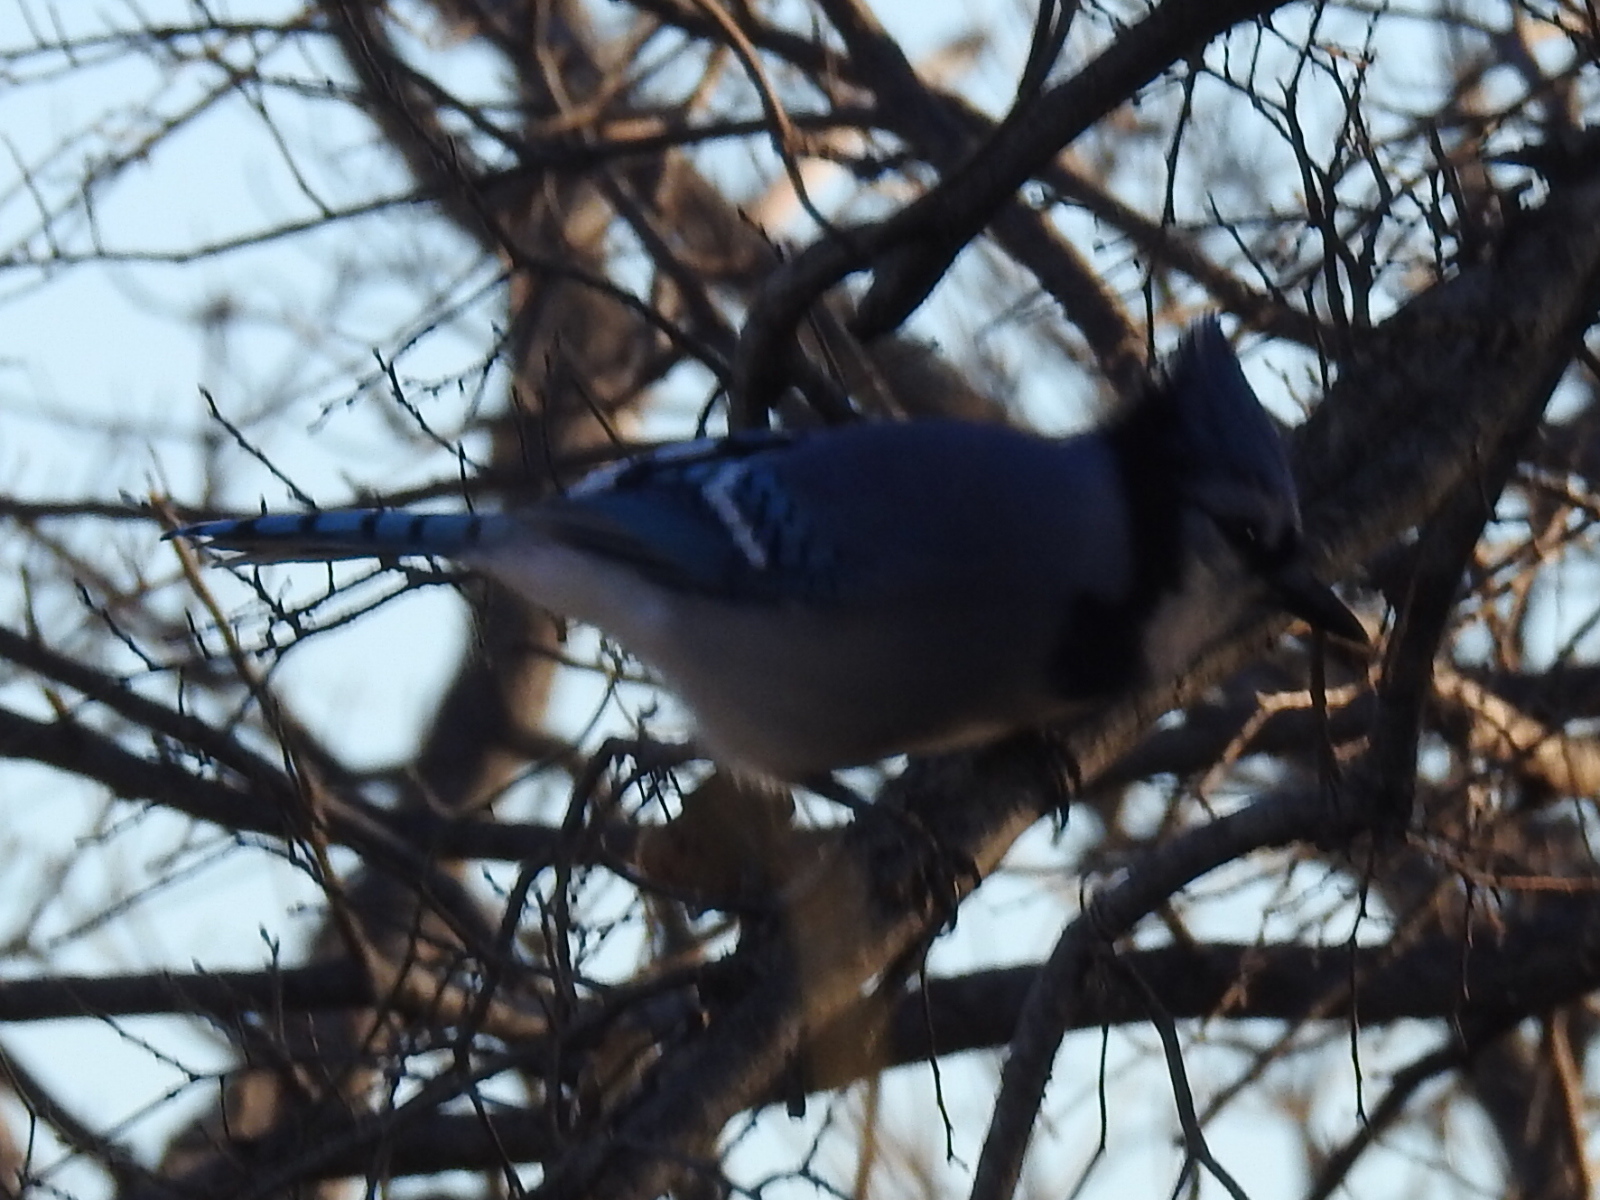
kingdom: Animalia
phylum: Chordata
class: Aves
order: Passeriformes
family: Corvidae
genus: Cyanocitta
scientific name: Cyanocitta cristata
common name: Blue jay
